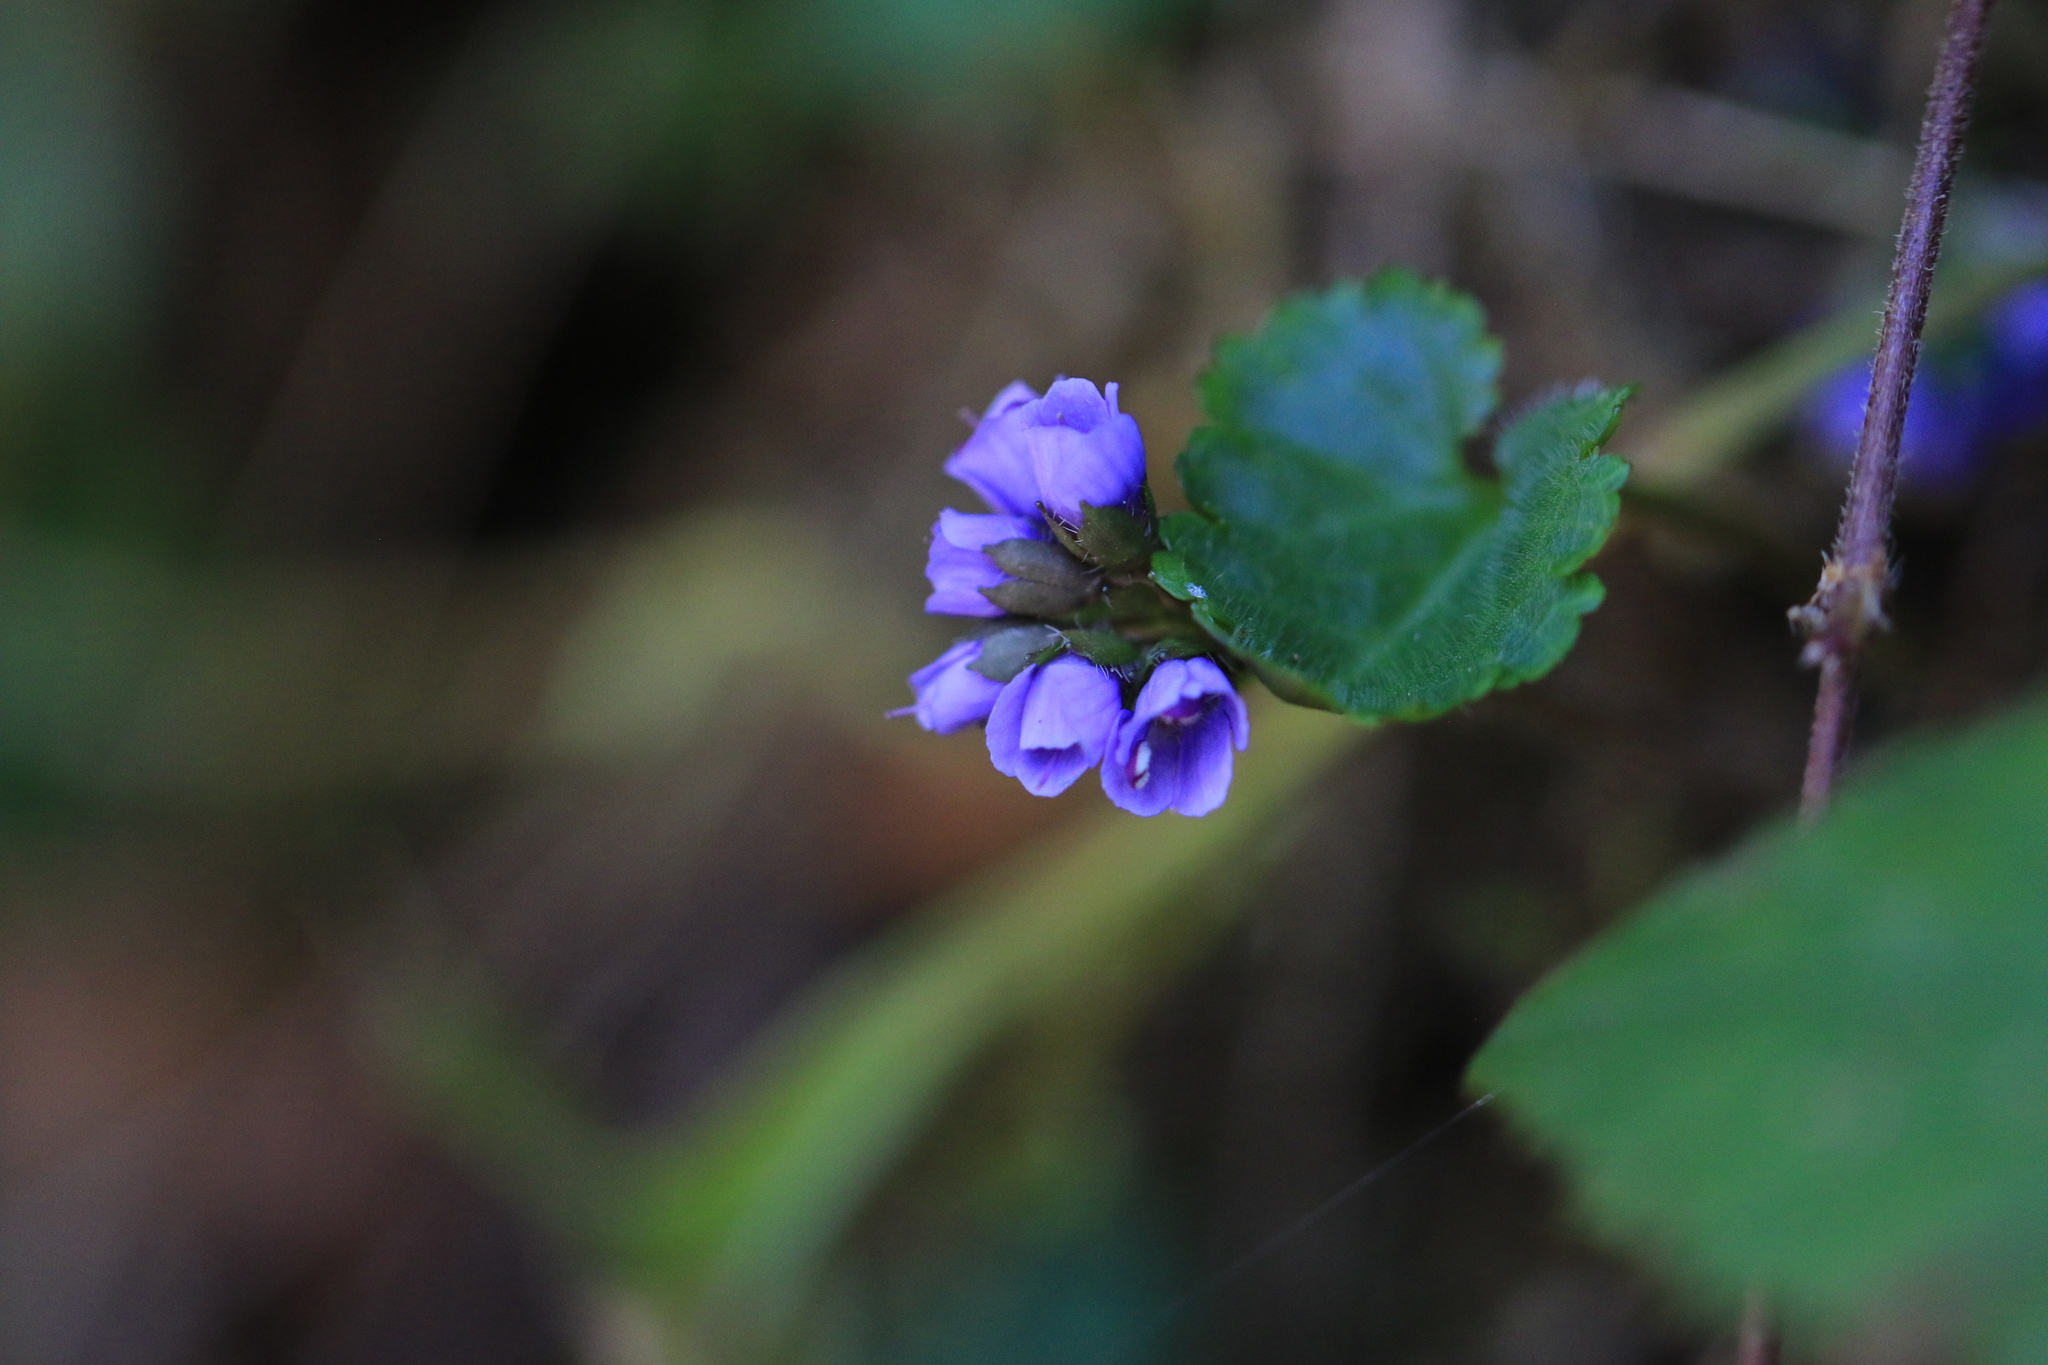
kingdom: Plantae
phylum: Tracheophyta
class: Magnoliopsida
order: Lamiales
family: Plantaginaceae
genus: Synthyris
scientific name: Synthyris reniformis
